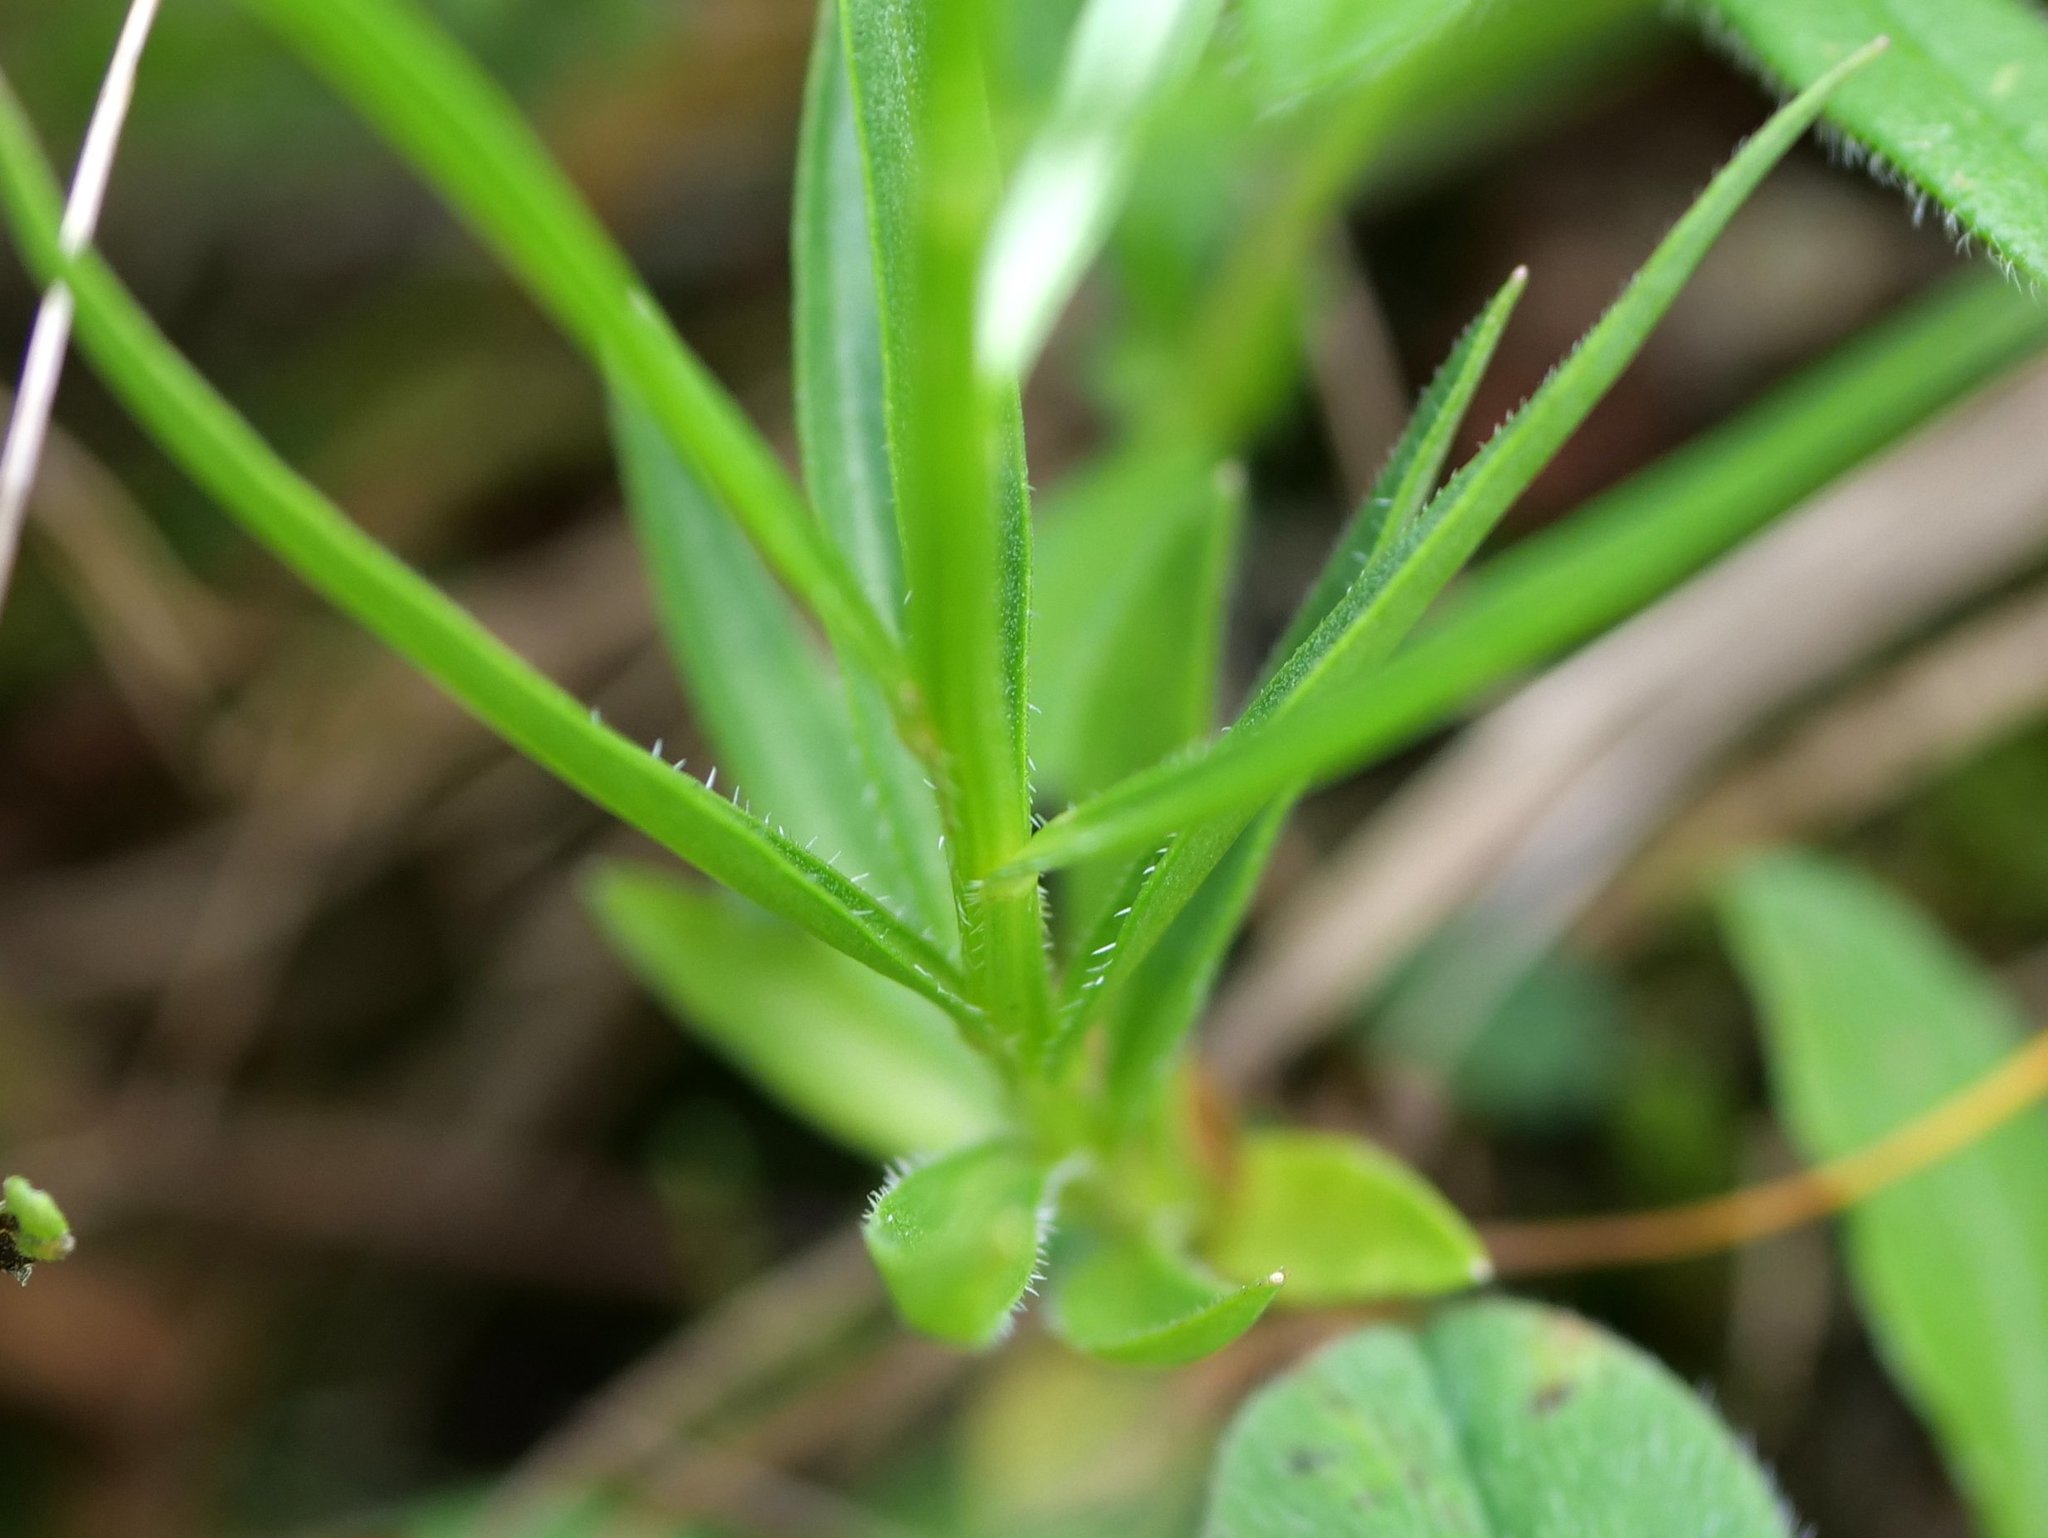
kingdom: Plantae
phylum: Tracheophyta
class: Magnoliopsida
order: Asterales
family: Campanulaceae
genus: Campanula
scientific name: Campanula scheuchzeri
